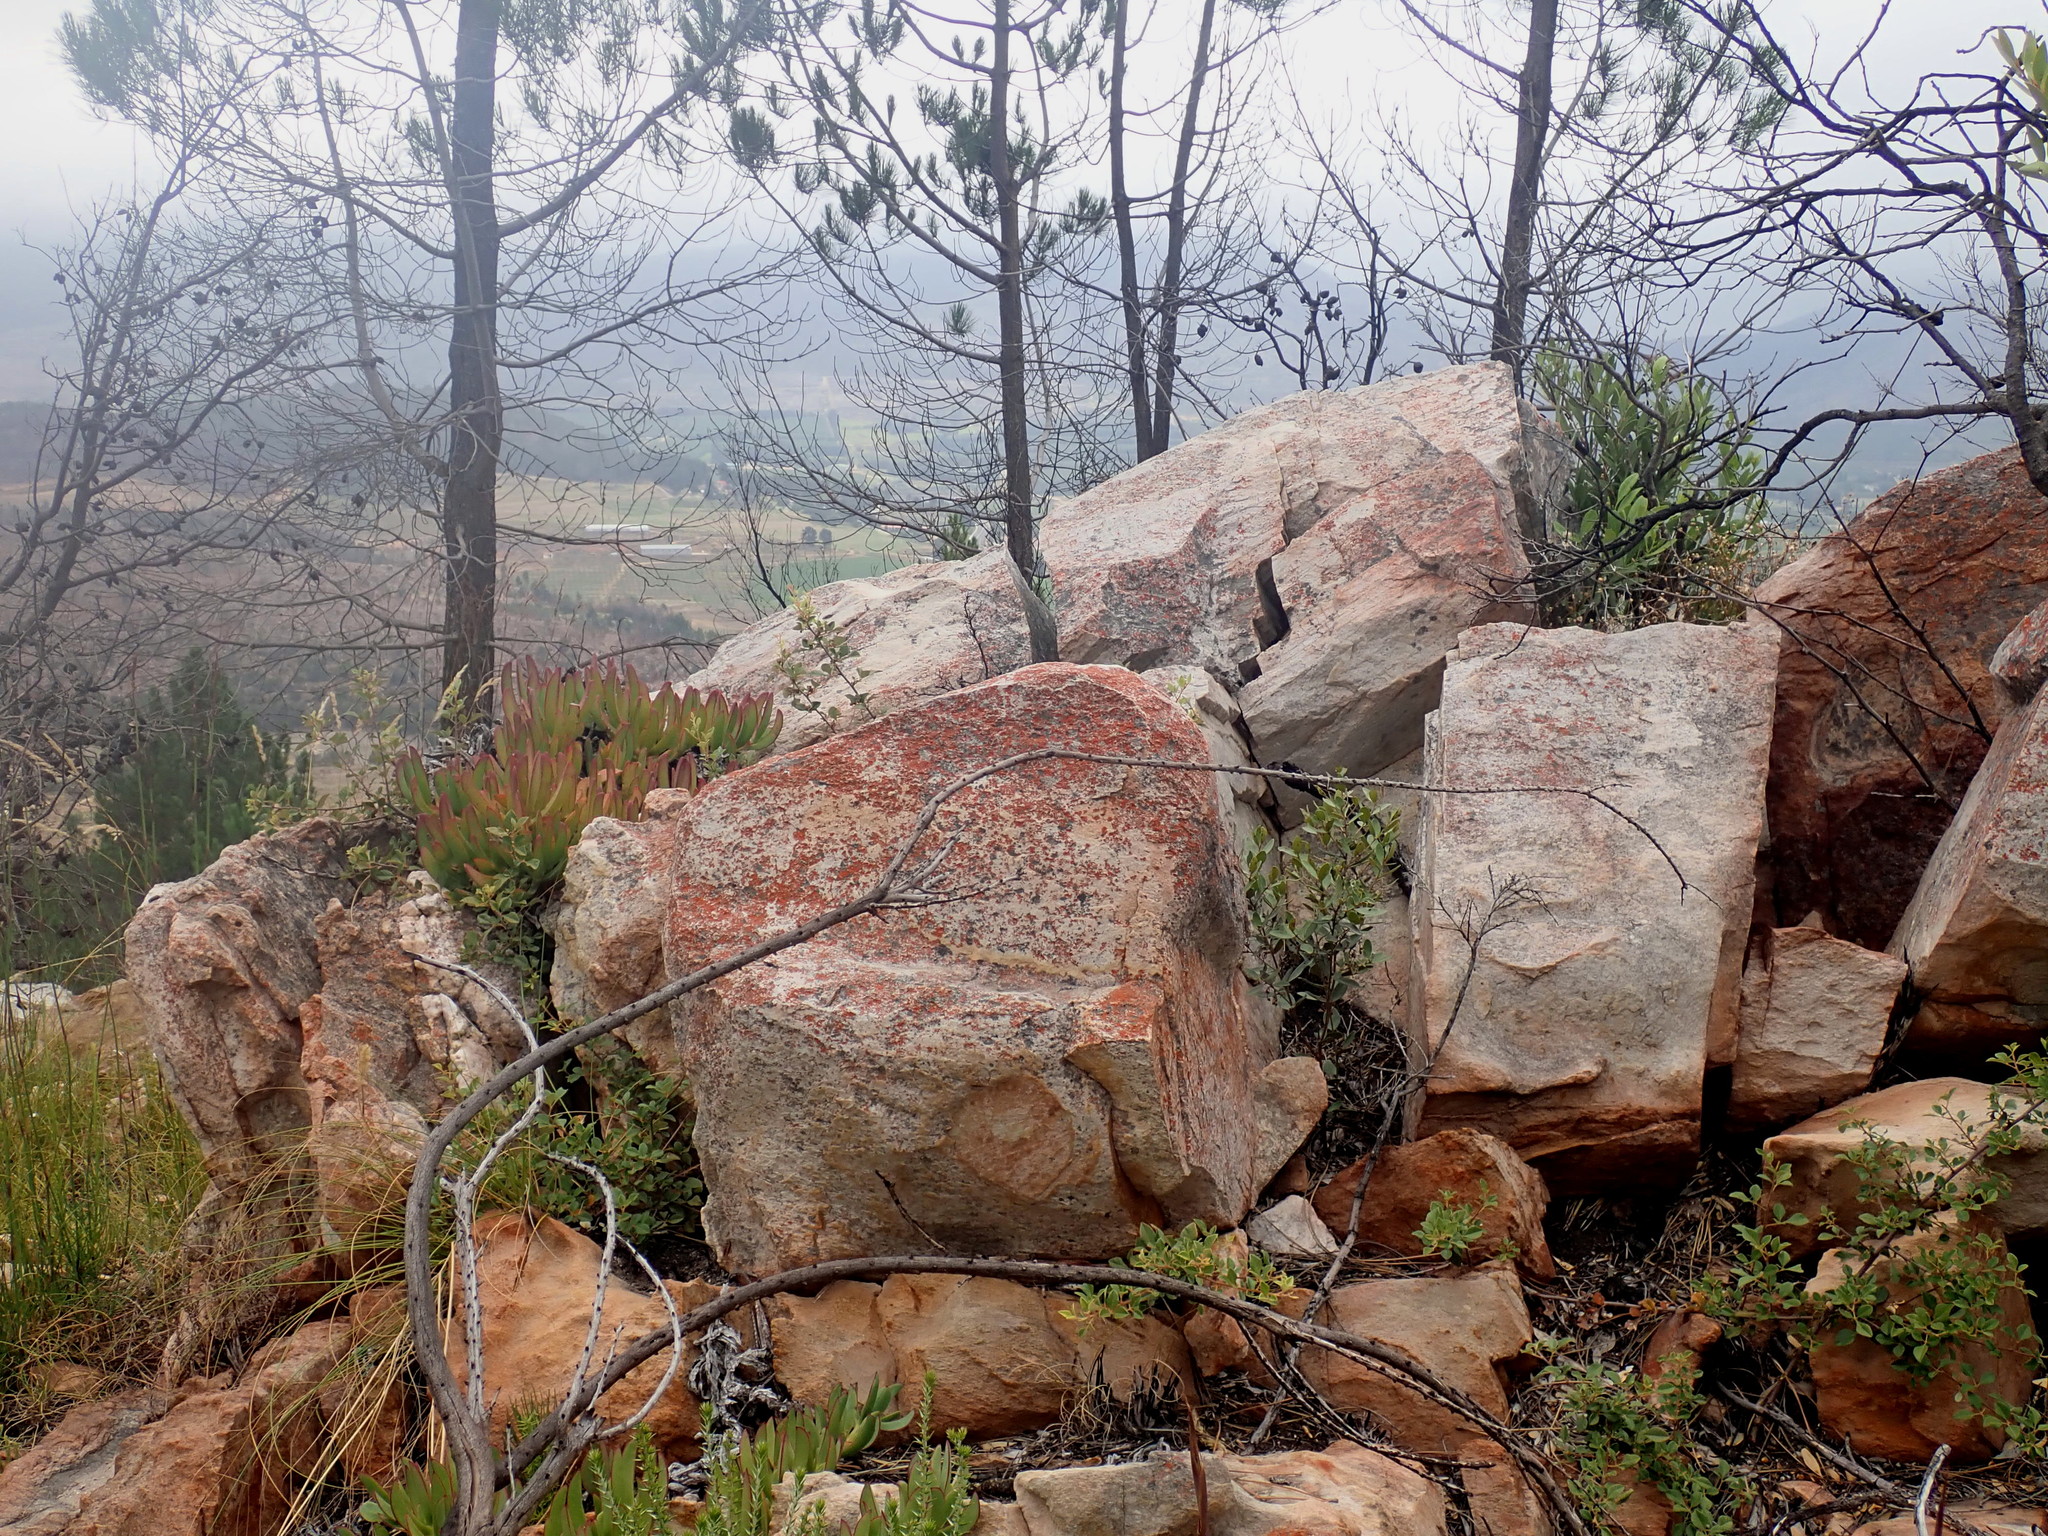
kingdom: Plantae
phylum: Tracheophyta
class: Pinopsida
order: Pinales
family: Pinaceae
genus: Pinus
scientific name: Pinus pinaster
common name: Maritime pine
